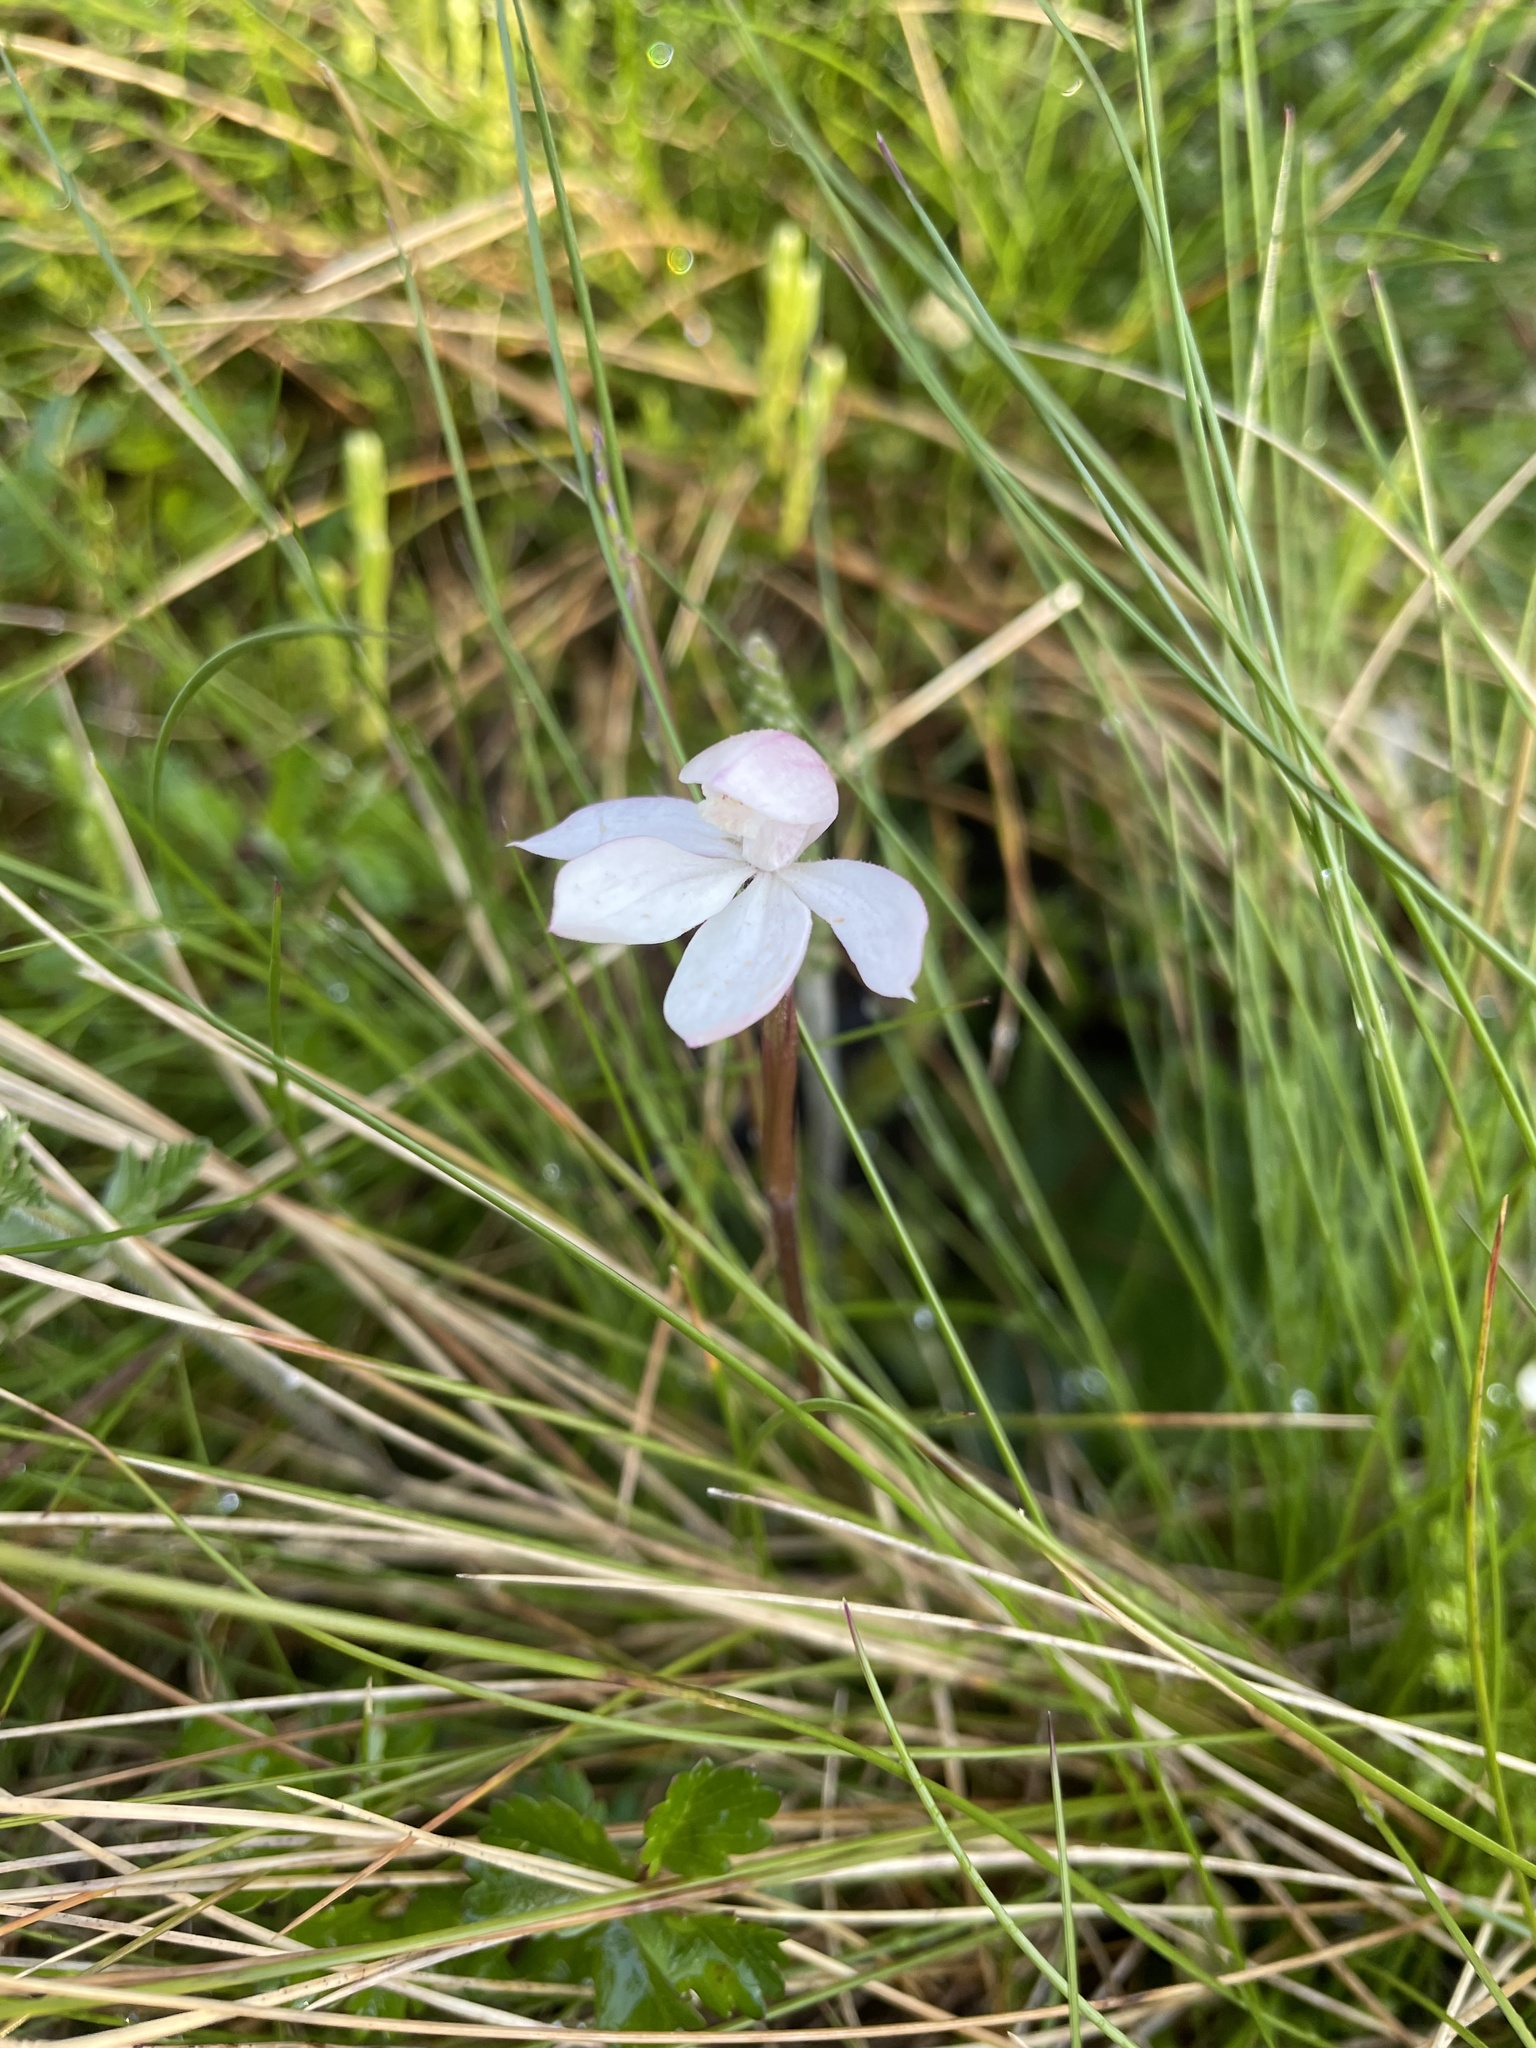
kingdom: Plantae
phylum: Tracheophyta
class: Liliopsida
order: Asparagales
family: Orchidaceae
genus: Caladenia
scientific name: Caladenia alpina
